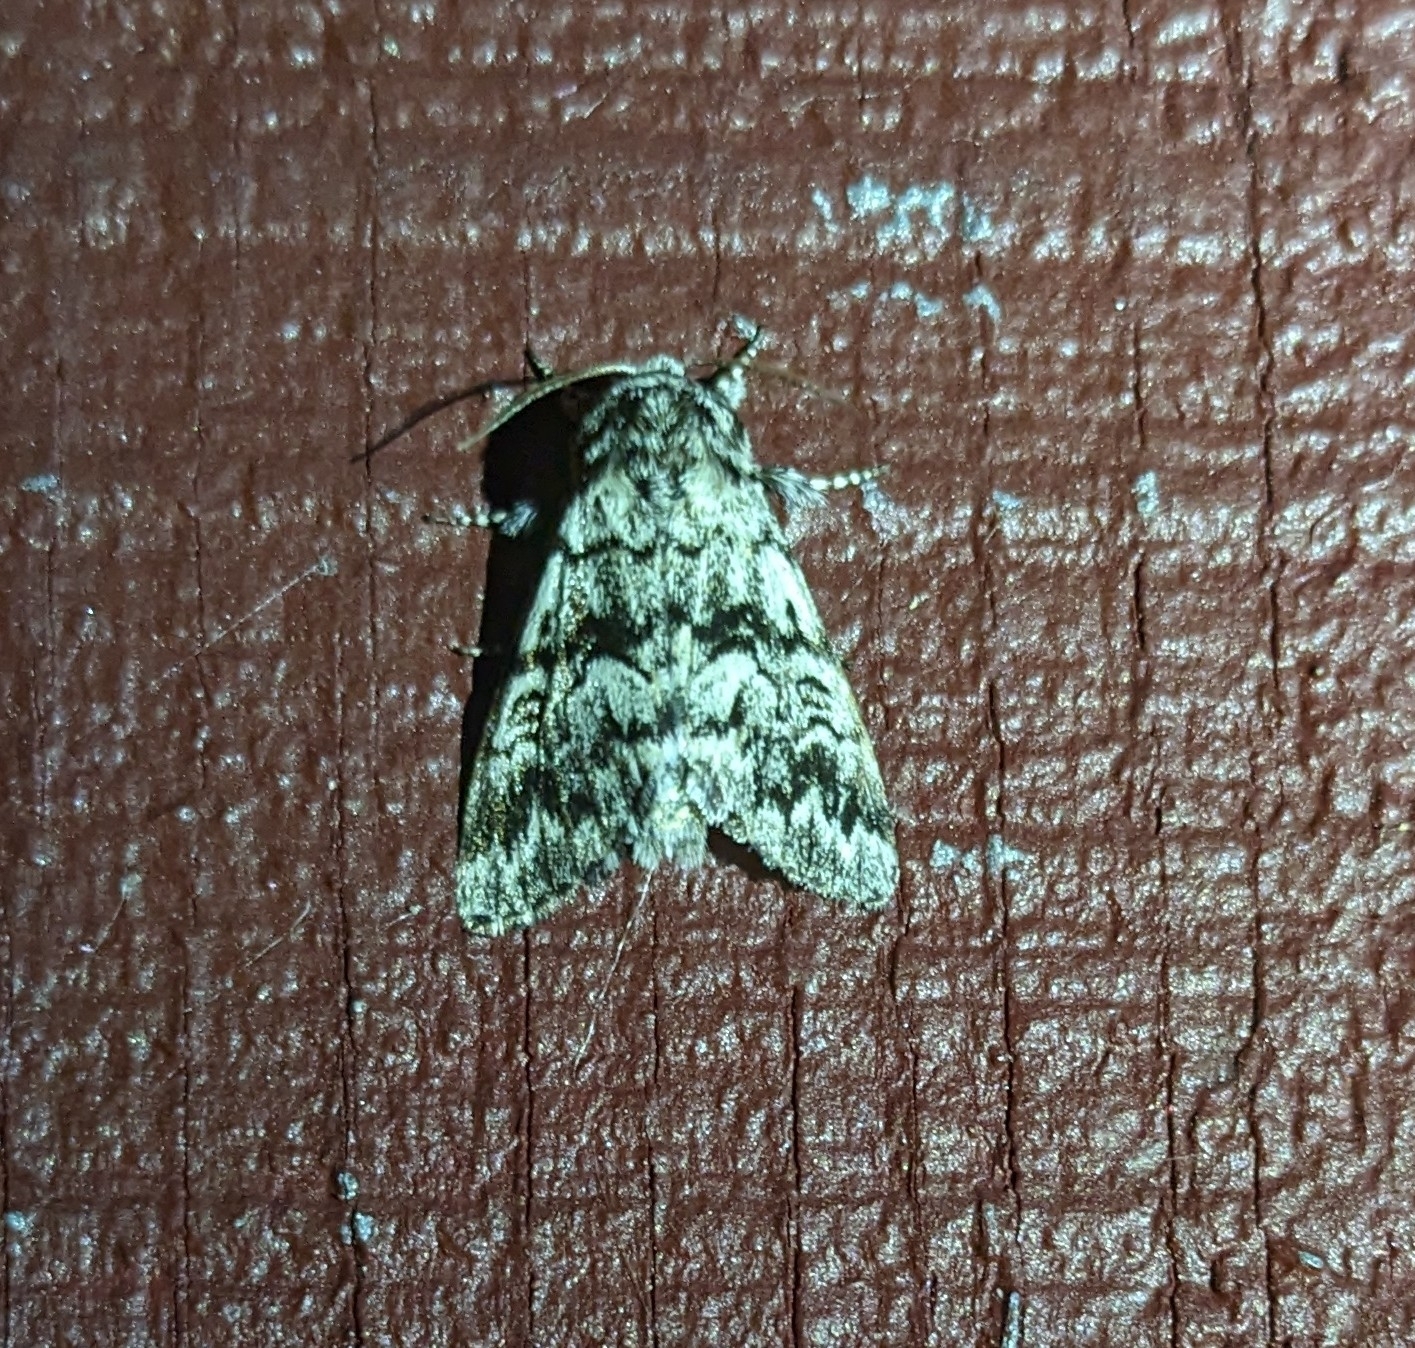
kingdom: Animalia
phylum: Arthropoda
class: Insecta
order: Lepidoptera
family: Noctuidae
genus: Panthea
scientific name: Panthea acronyctoides
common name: Black zigzag moth
